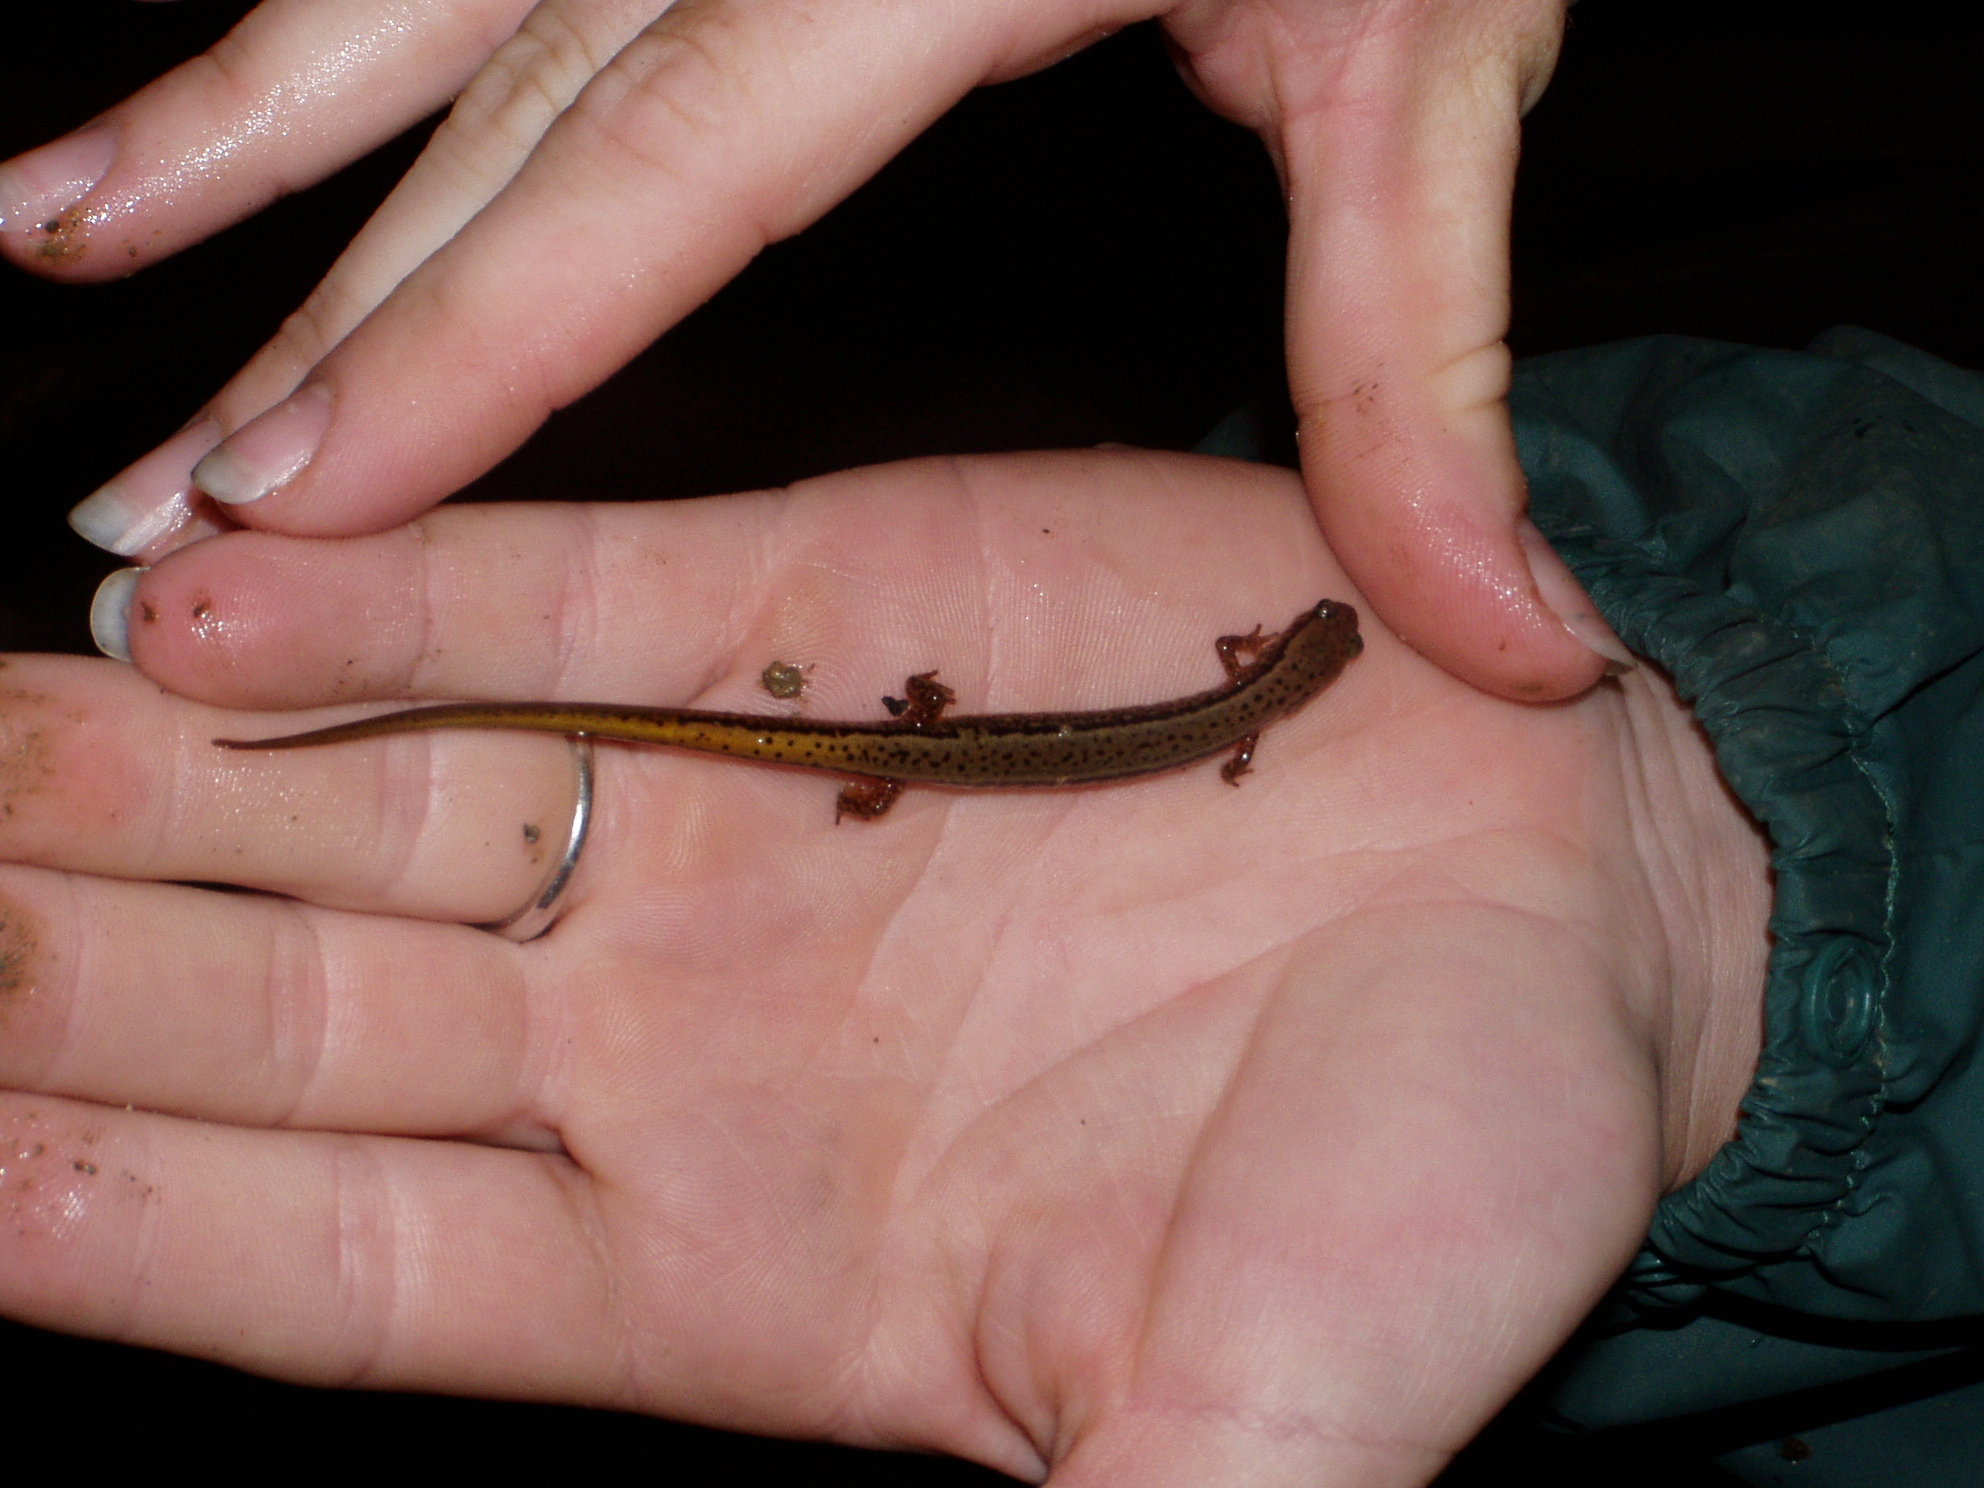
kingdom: Animalia
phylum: Chordata
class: Amphibia
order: Caudata
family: Plethodontidae
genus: Eurycea
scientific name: Eurycea bislineata
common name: Northern two-lined salamander
